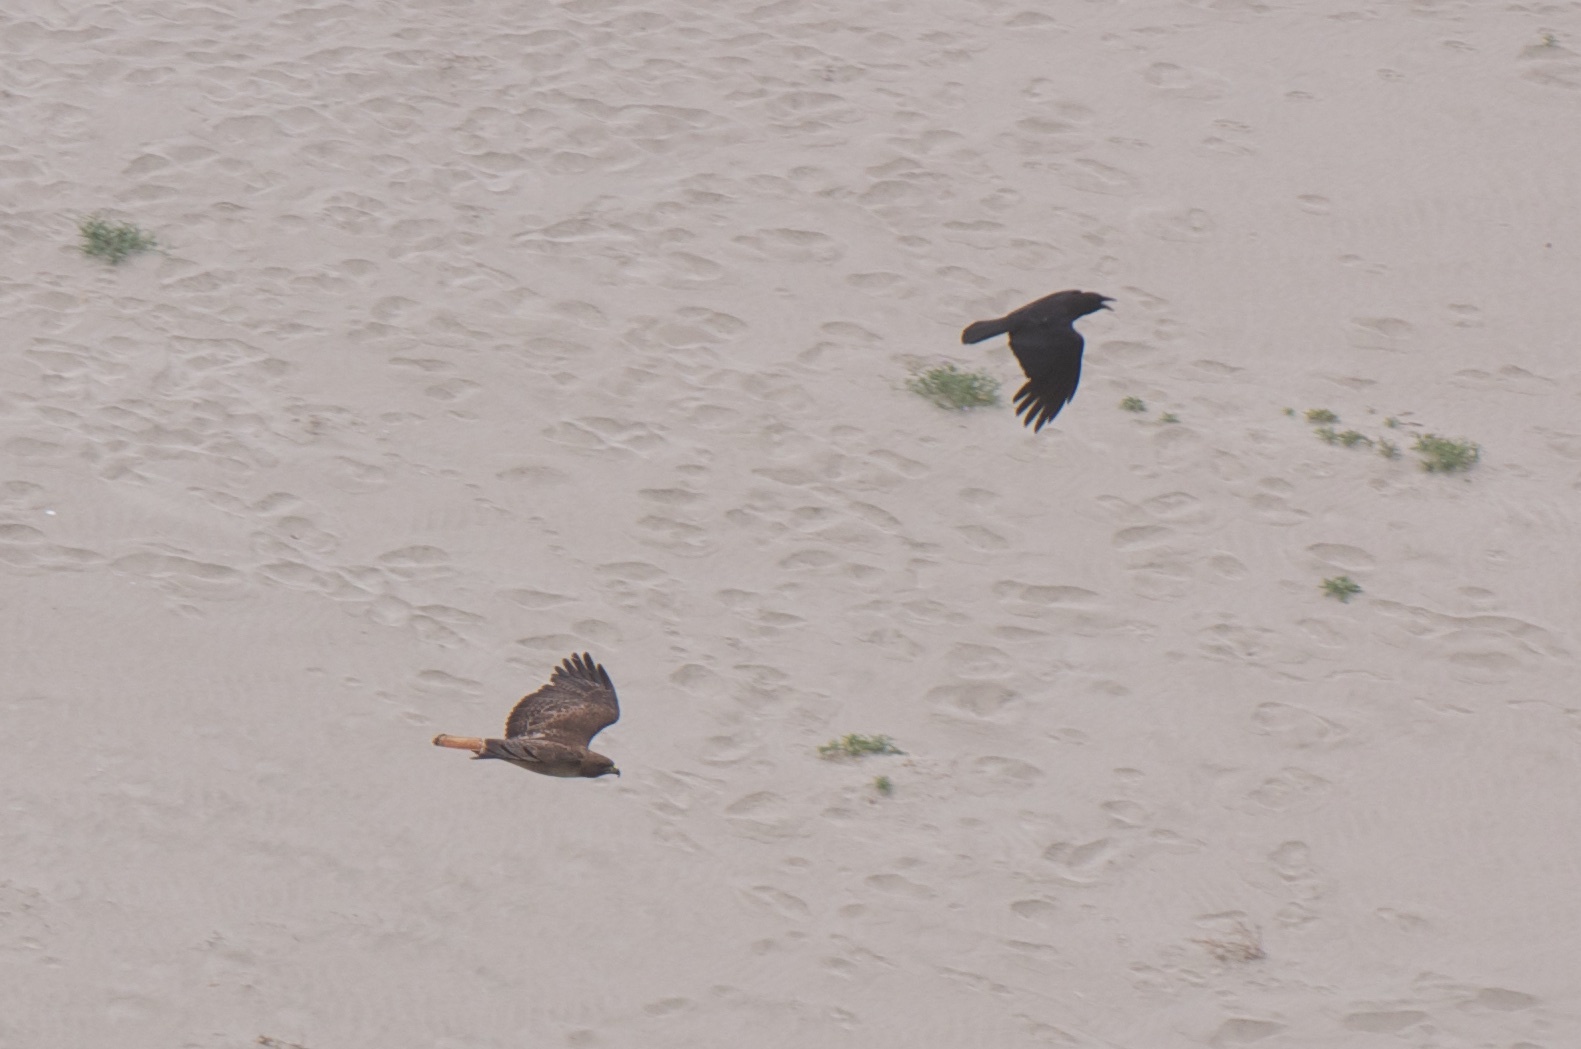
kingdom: Animalia
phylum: Chordata
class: Aves
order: Accipitriformes
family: Accipitridae
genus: Buteo
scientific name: Buteo jamaicensis
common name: Red-tailed hawk
